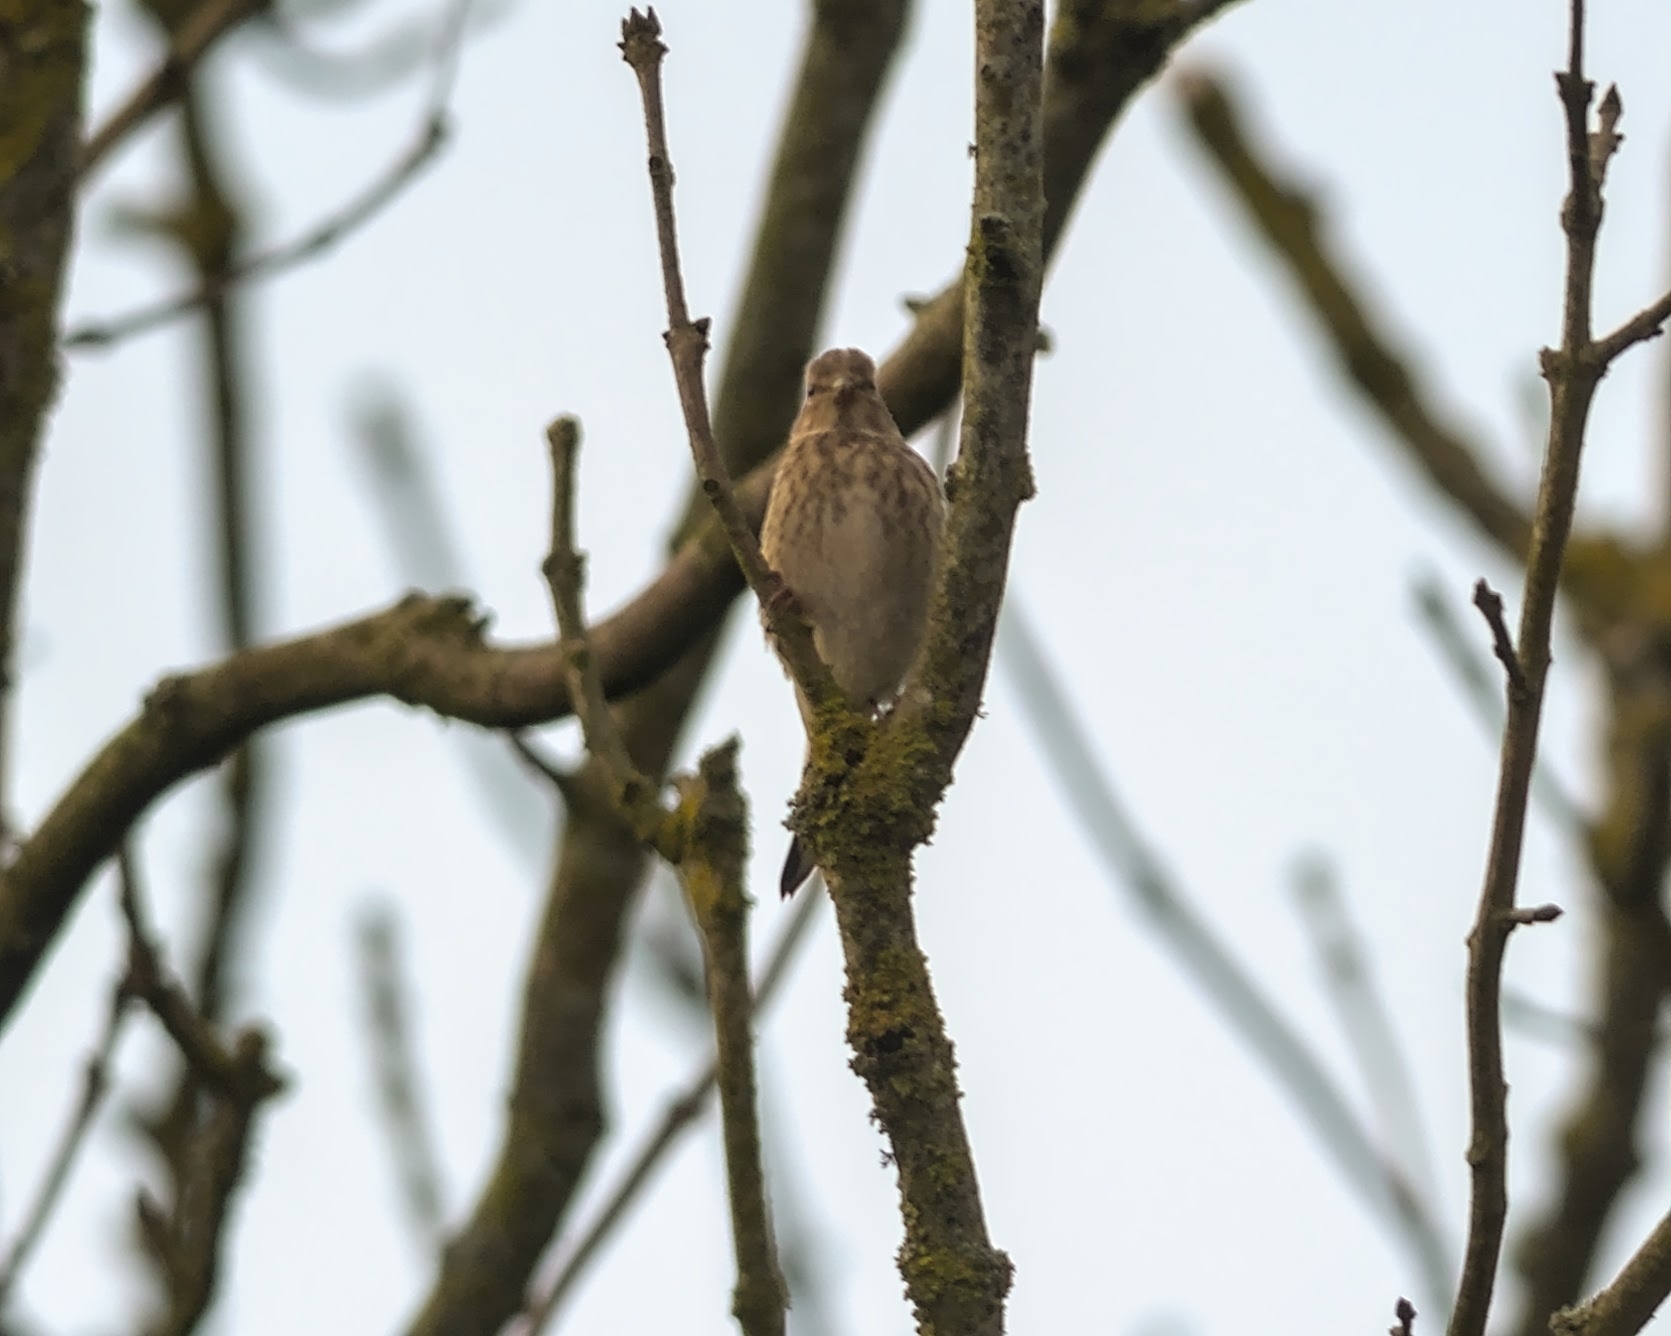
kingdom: Animalia
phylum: Chordata
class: Aves
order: Passeriformes
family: Fringillidae
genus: Linaria
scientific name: Linaria cannabina
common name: Common linnet
